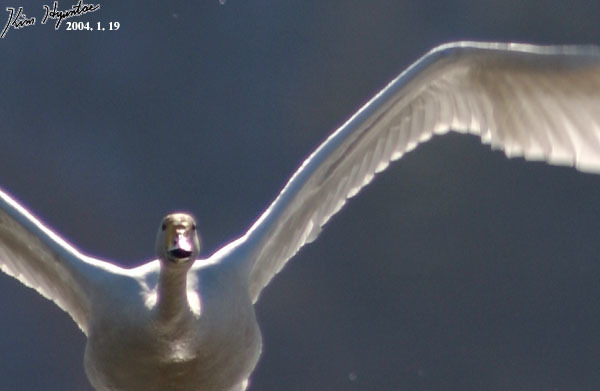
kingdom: Animalia
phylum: Chordata
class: Aves
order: Anseriformes
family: Anatidae
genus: Cygnus
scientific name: Cygnus cygnus
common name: Whooper swan
